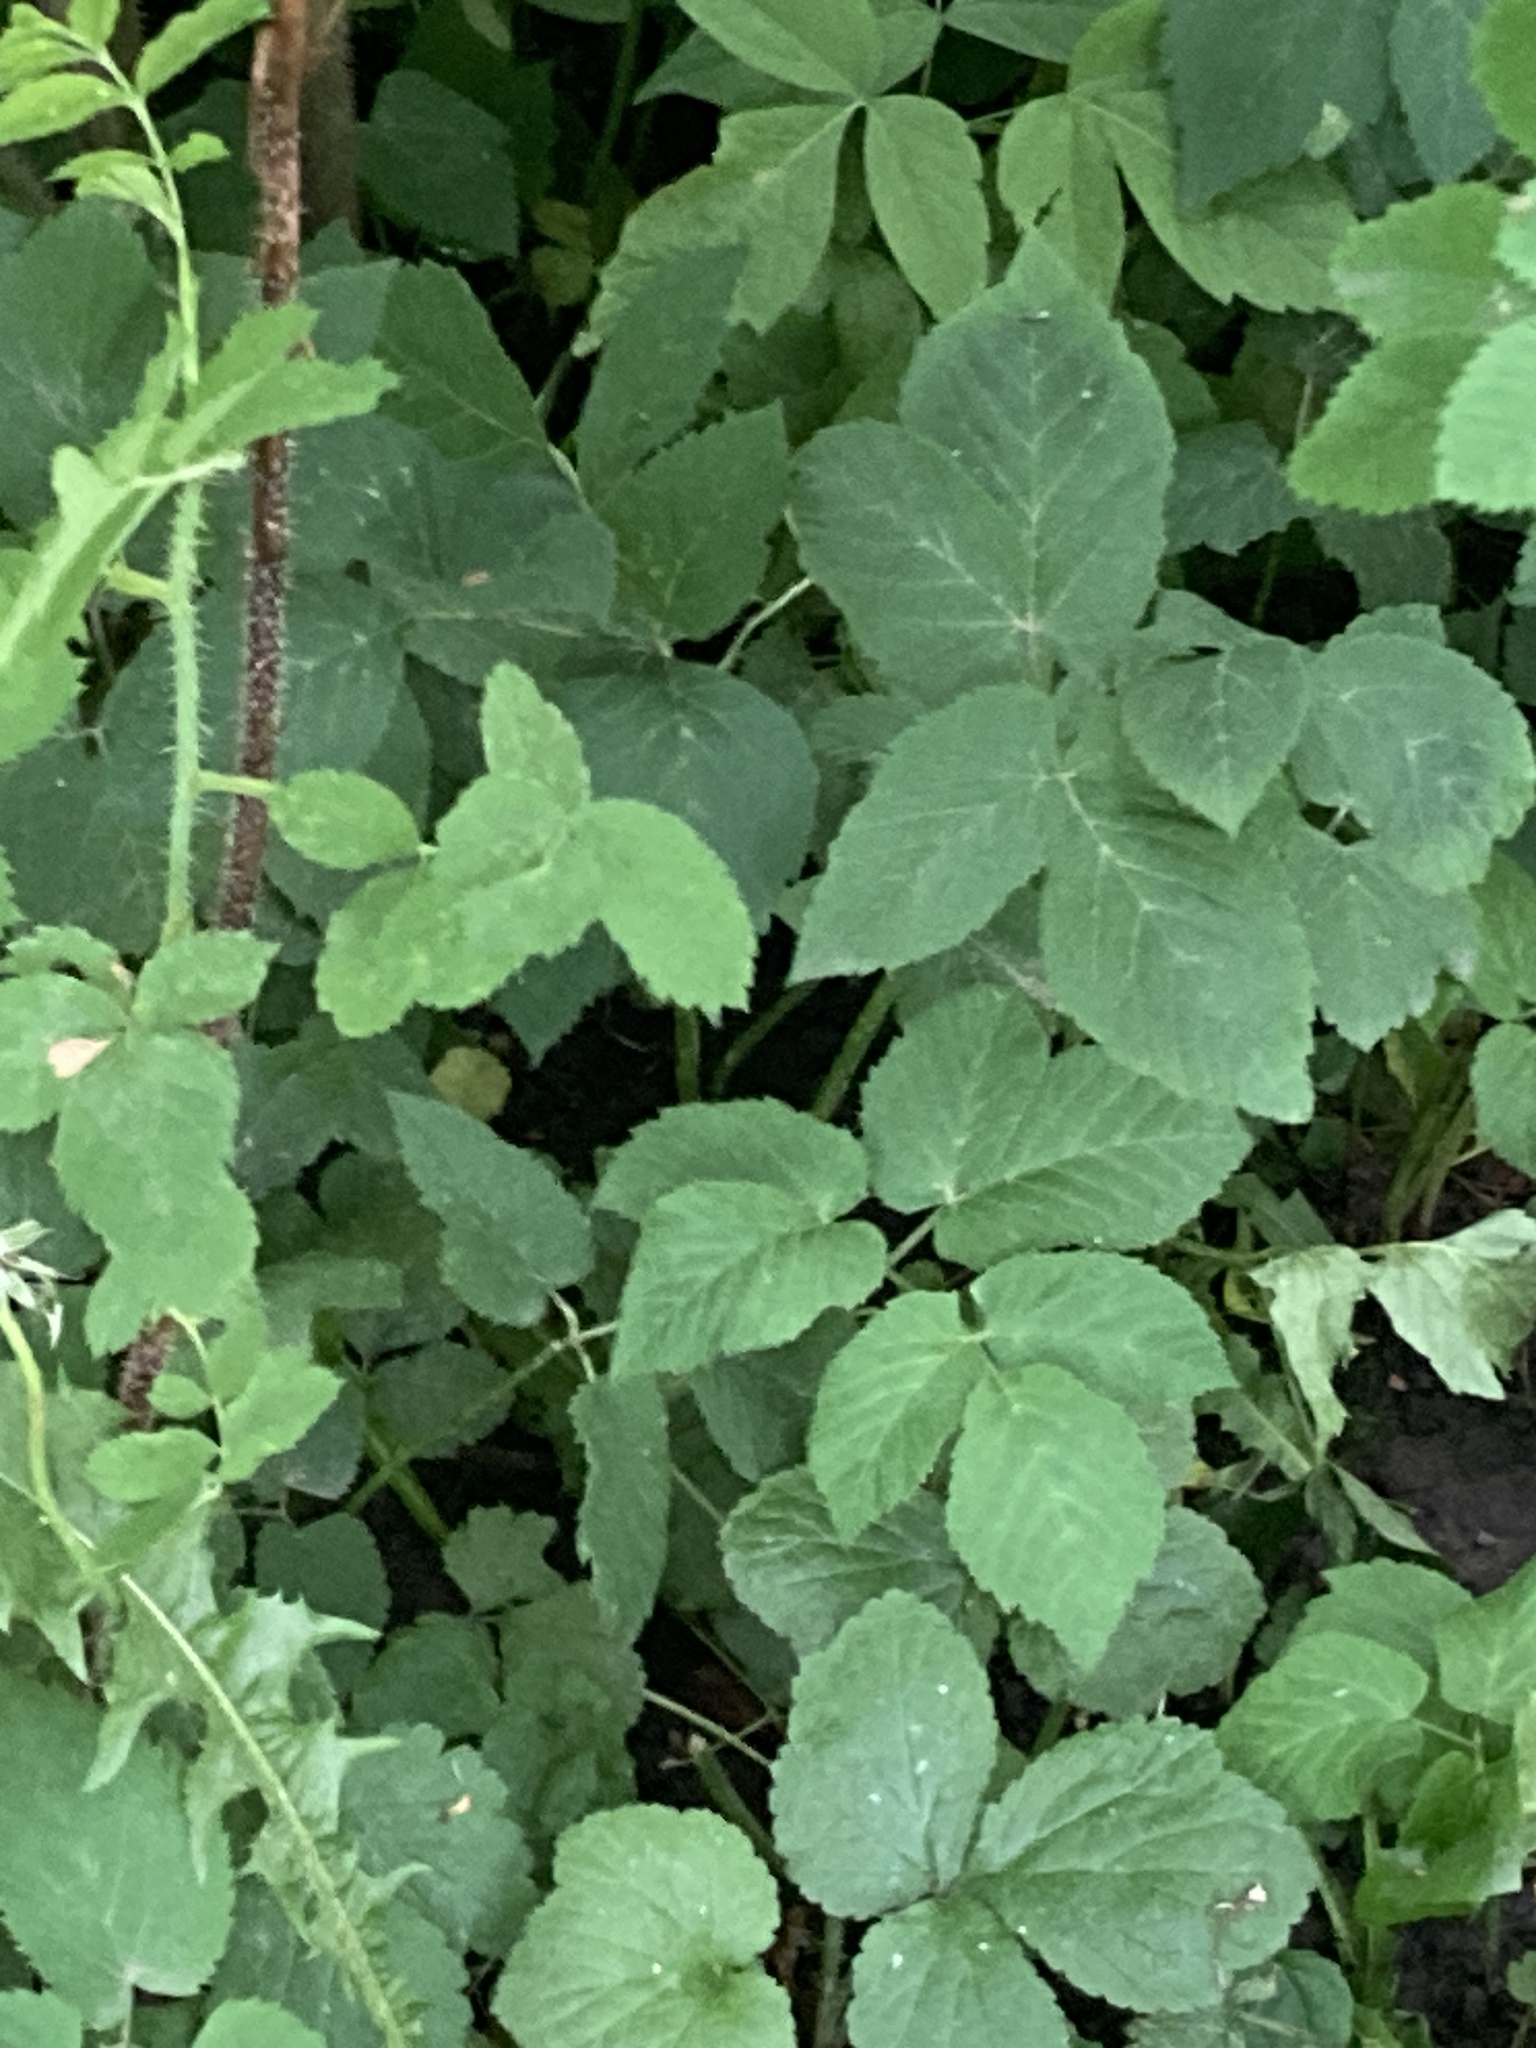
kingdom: Plantae
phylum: Tracheophyta
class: Magnoliopsida
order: Apiales
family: Apiaceae
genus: Aegopodium
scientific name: Aegopodium podagraria
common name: Ground-elder
